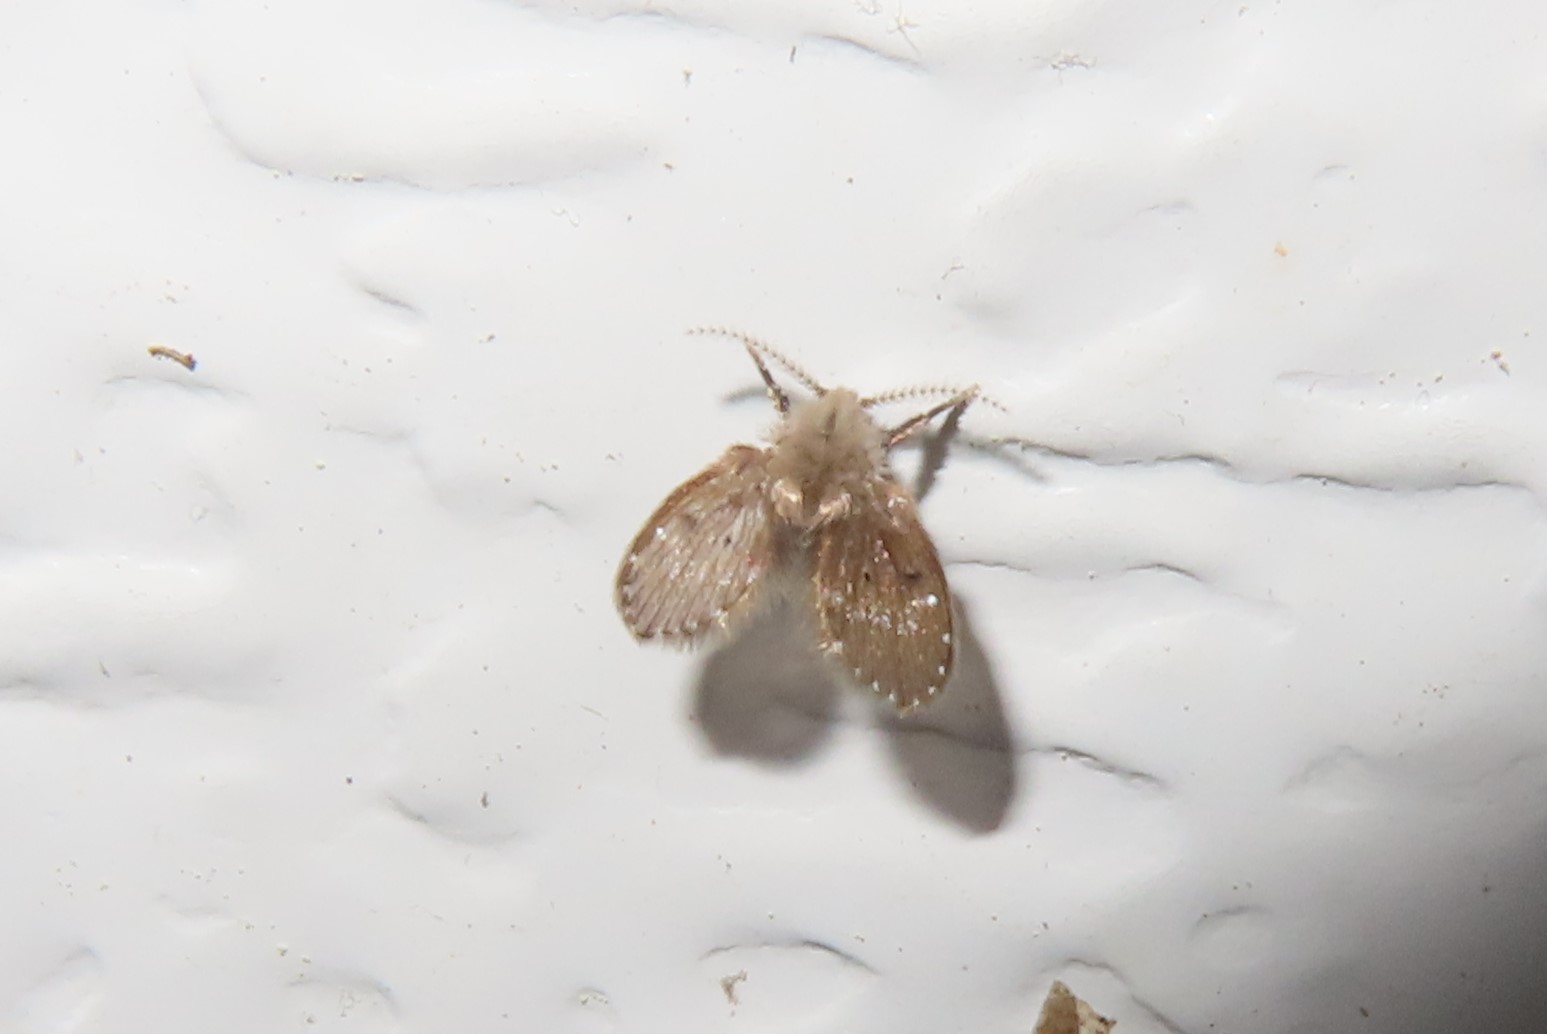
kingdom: Animalia
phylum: Arthropoda
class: Insecta
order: Diptera
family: Psychodidae
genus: Clogmia
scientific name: Clogmia albipunctatus
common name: White-spotted moth fly
